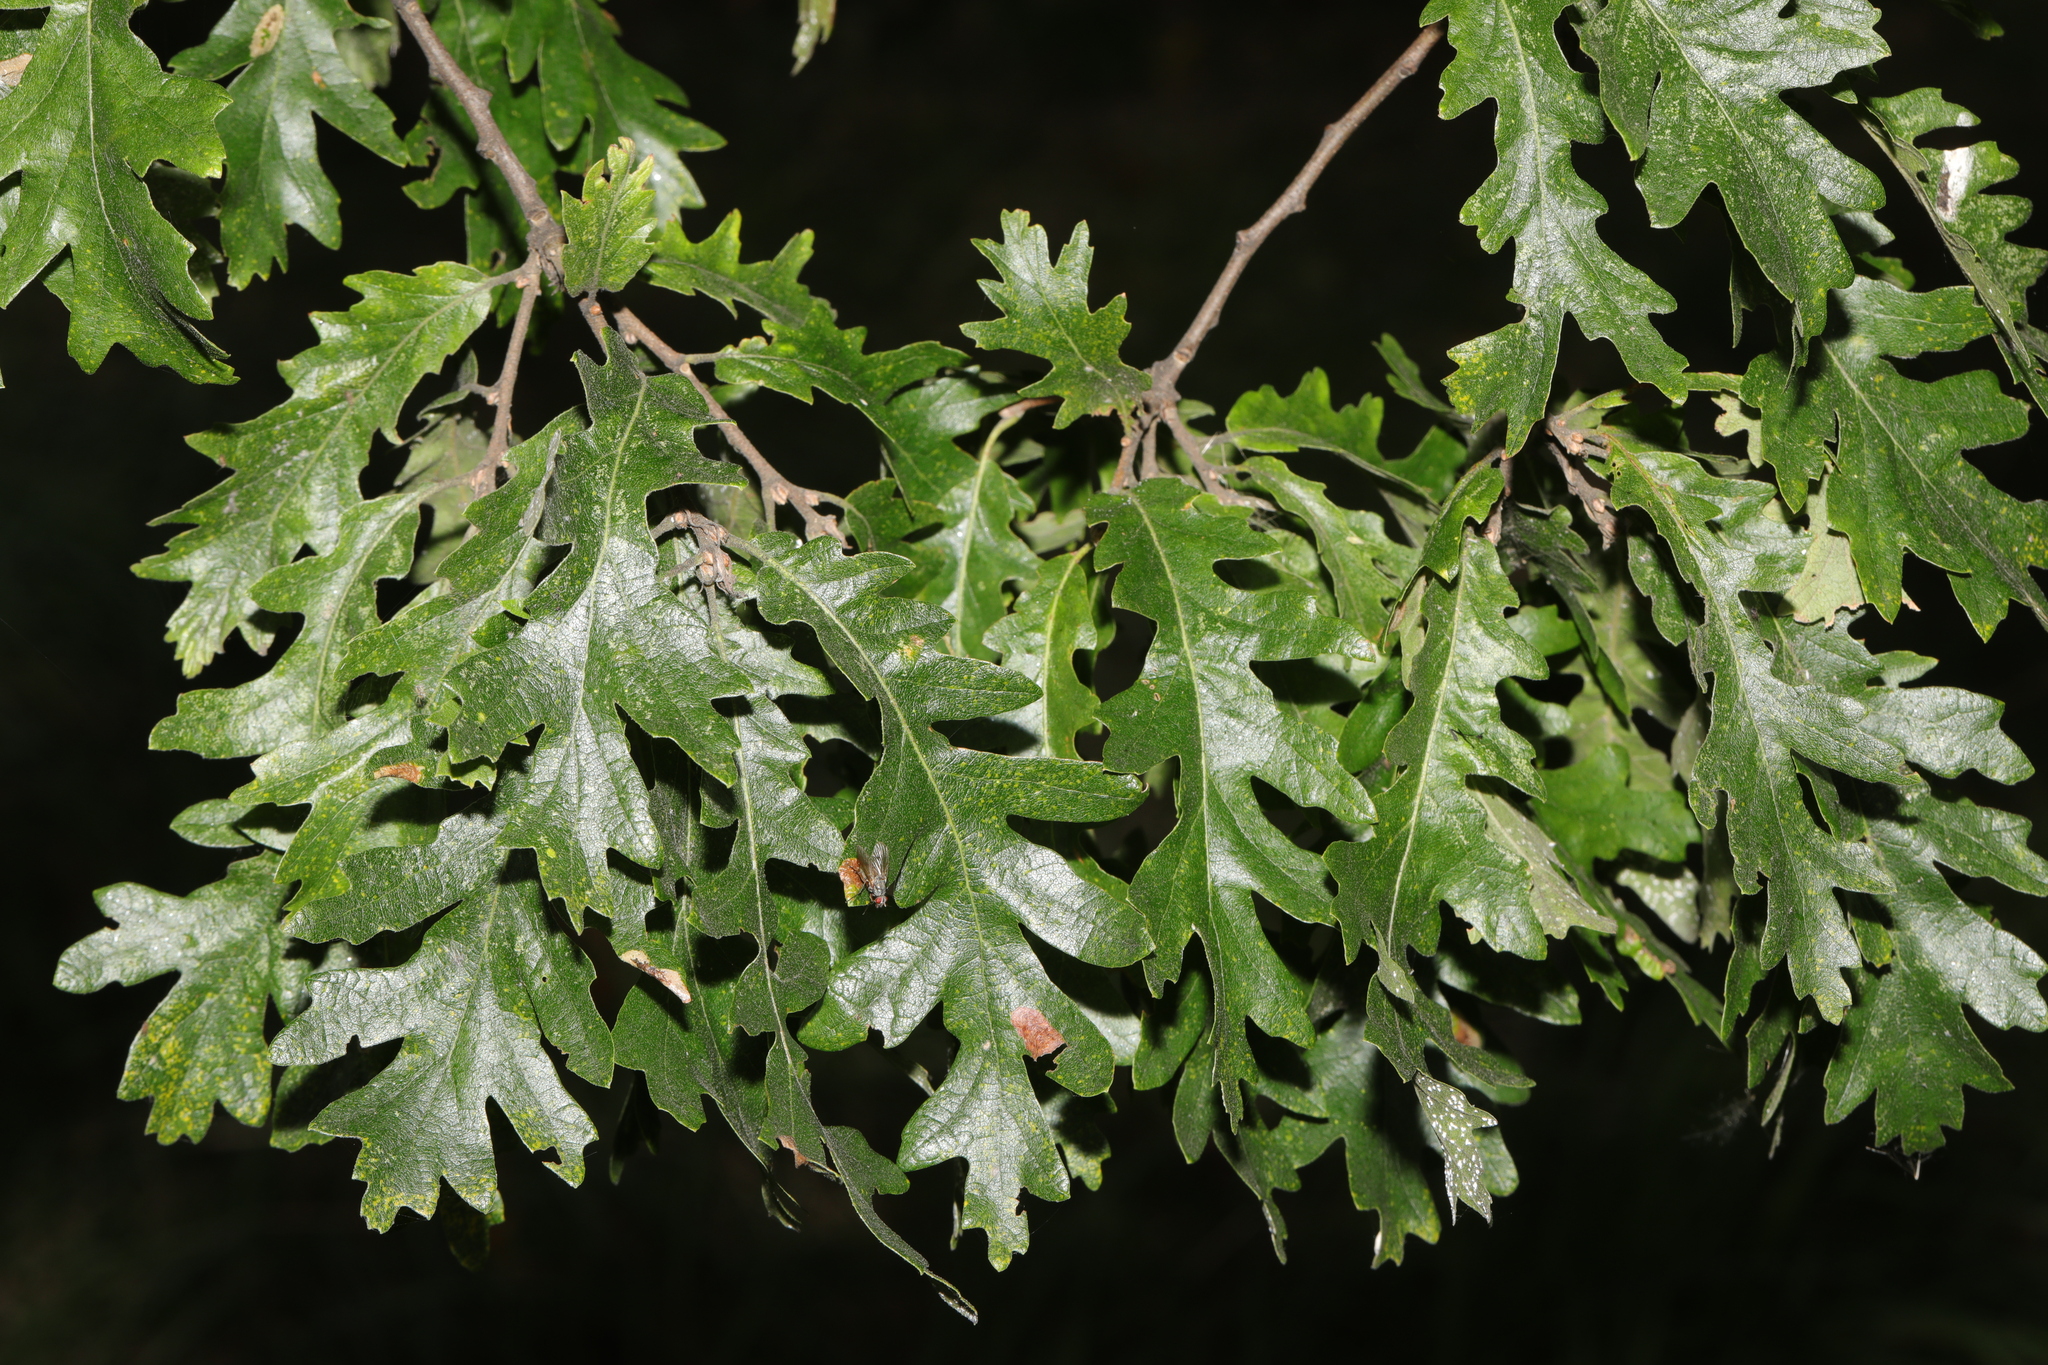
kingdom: Plantae
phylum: Tracheophyta
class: Magnoliopsida
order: Fagales
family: Fagaceae
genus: Quercus
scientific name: Quercus cerris
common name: Turkey oak
